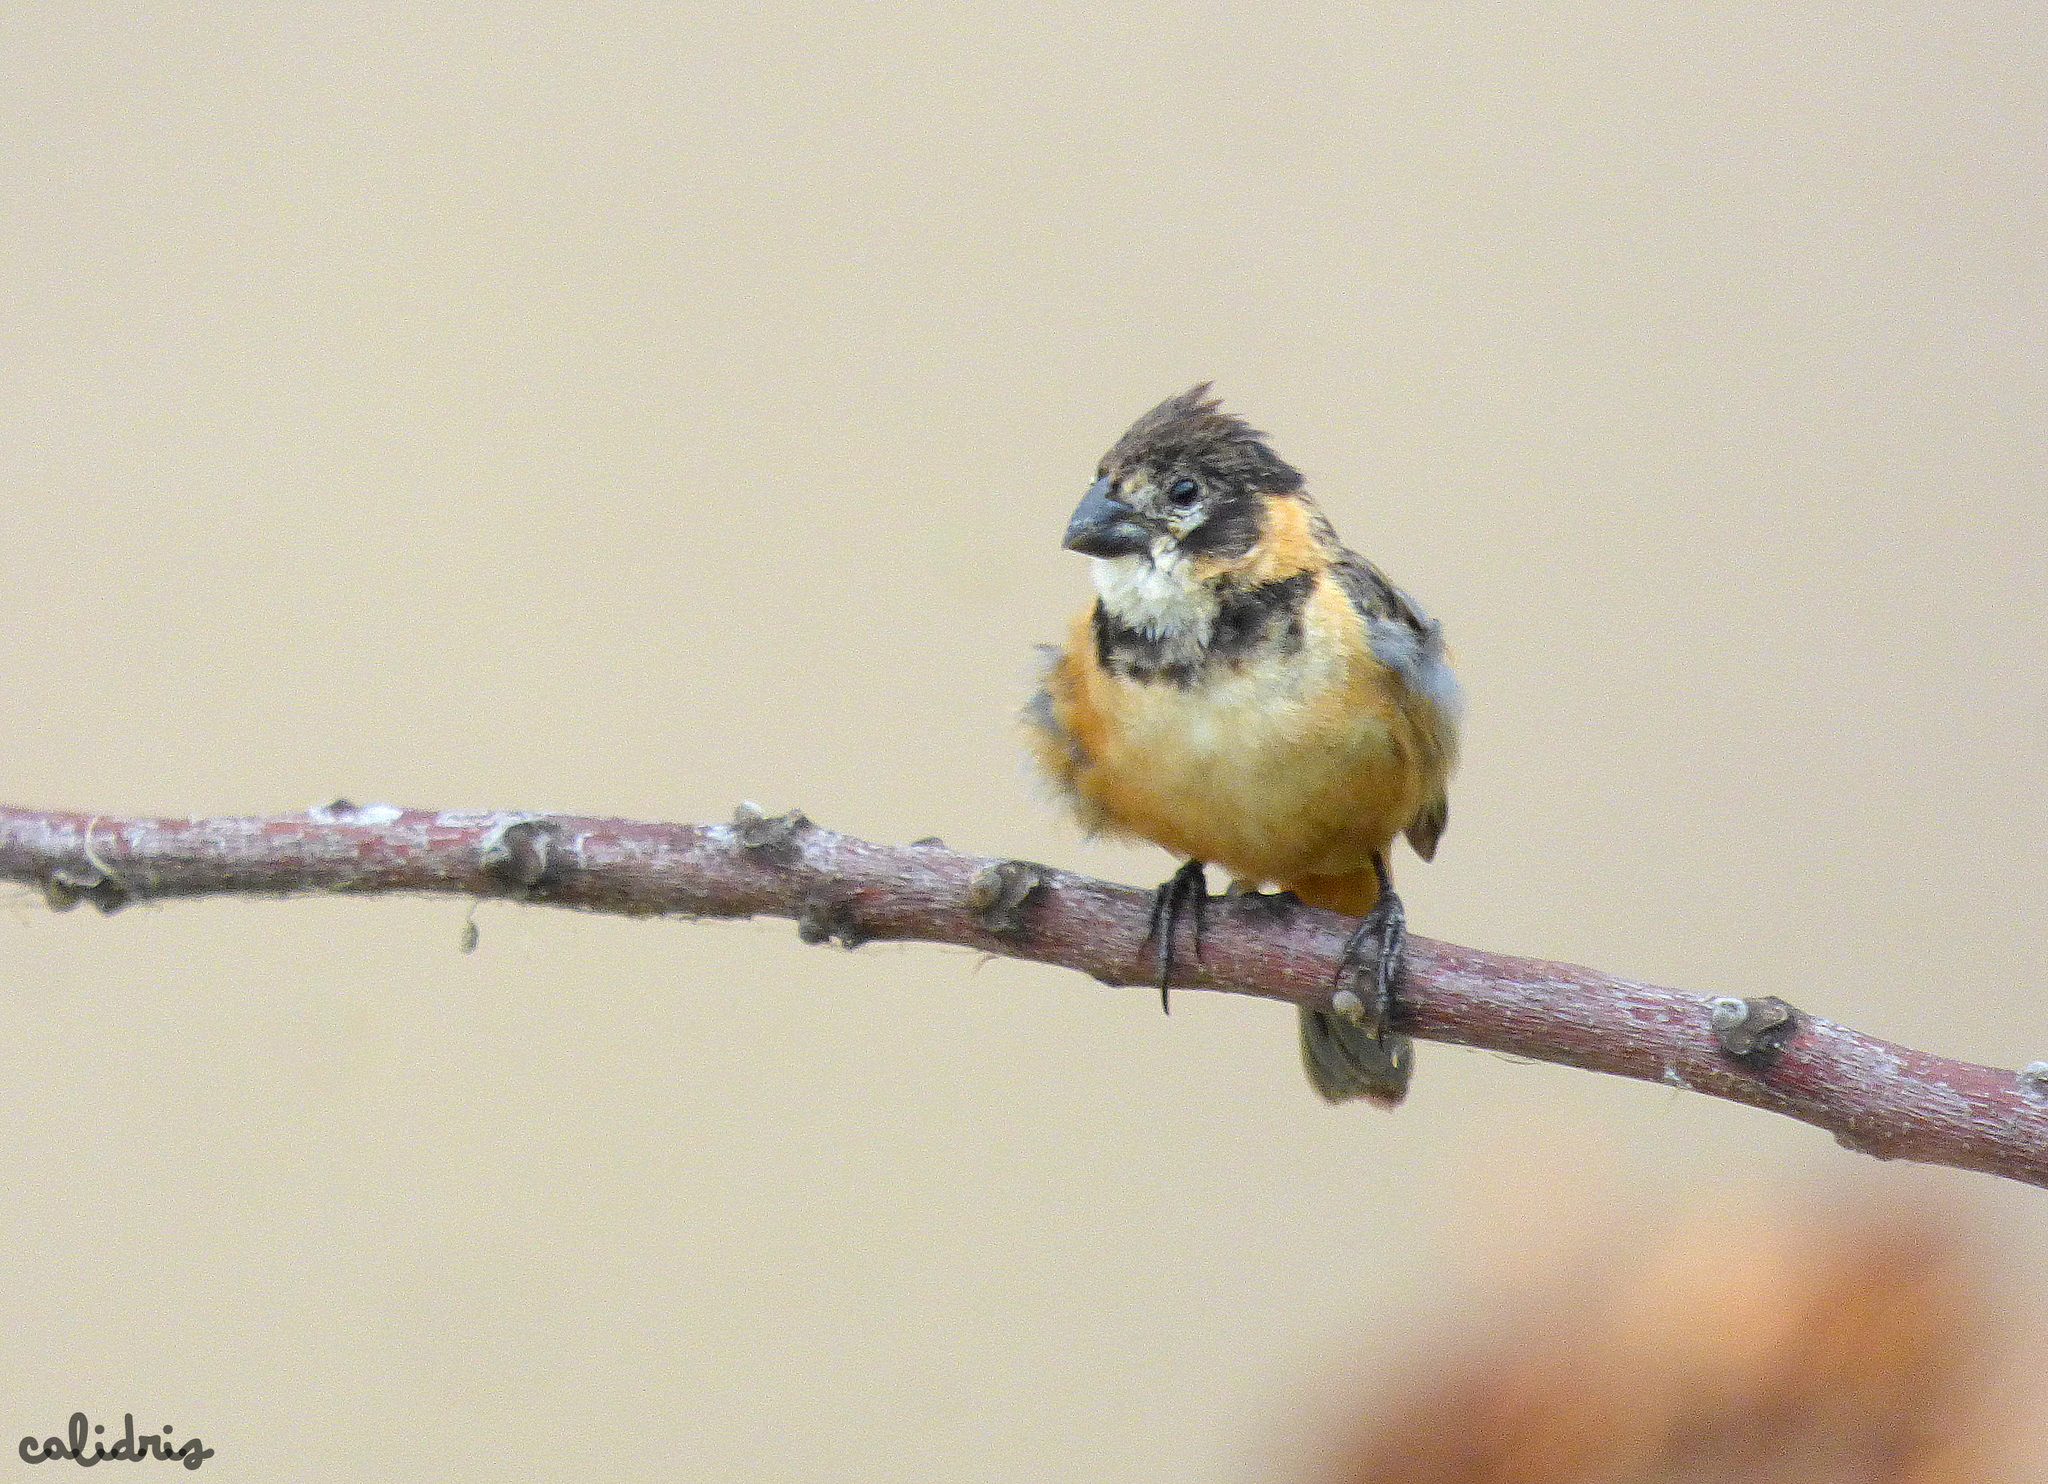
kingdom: Animalia
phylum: Chordata
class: Aves
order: Passeriformes
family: Thraupidae
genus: Sporophila
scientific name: Sporophila collaris
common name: Rusty-collared seedeater
